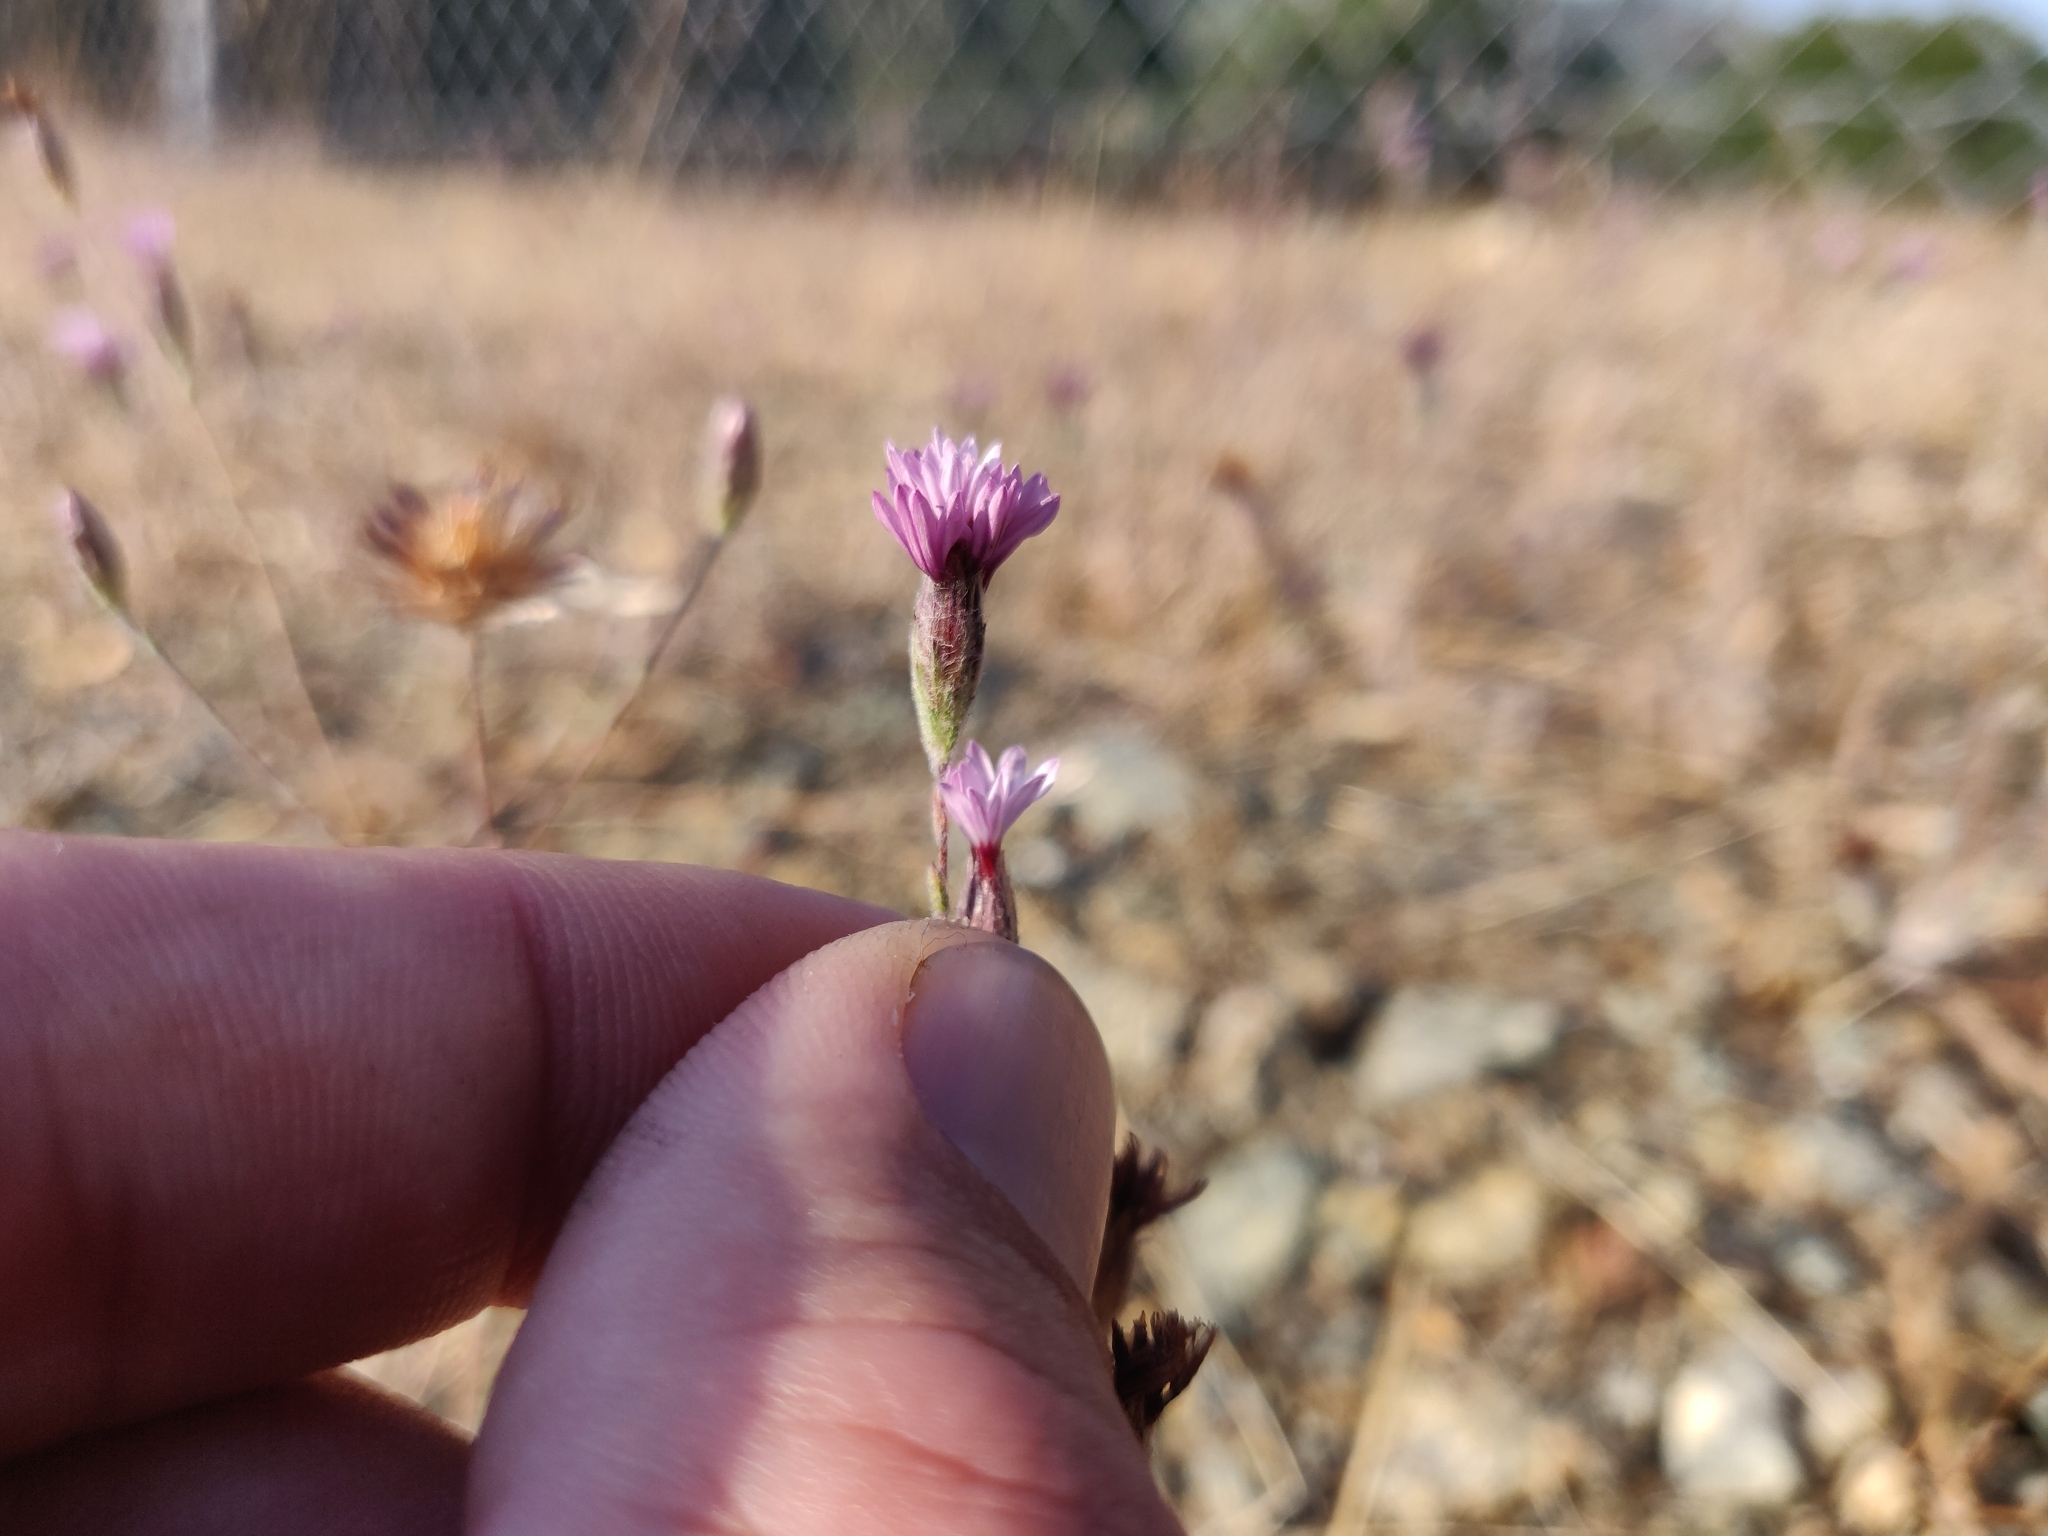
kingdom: Plantae
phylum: Tracheophyta
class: Magnoliopsida
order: Asterales
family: Asteraceae
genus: Lessingia
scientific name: Lessingia hololeuca
